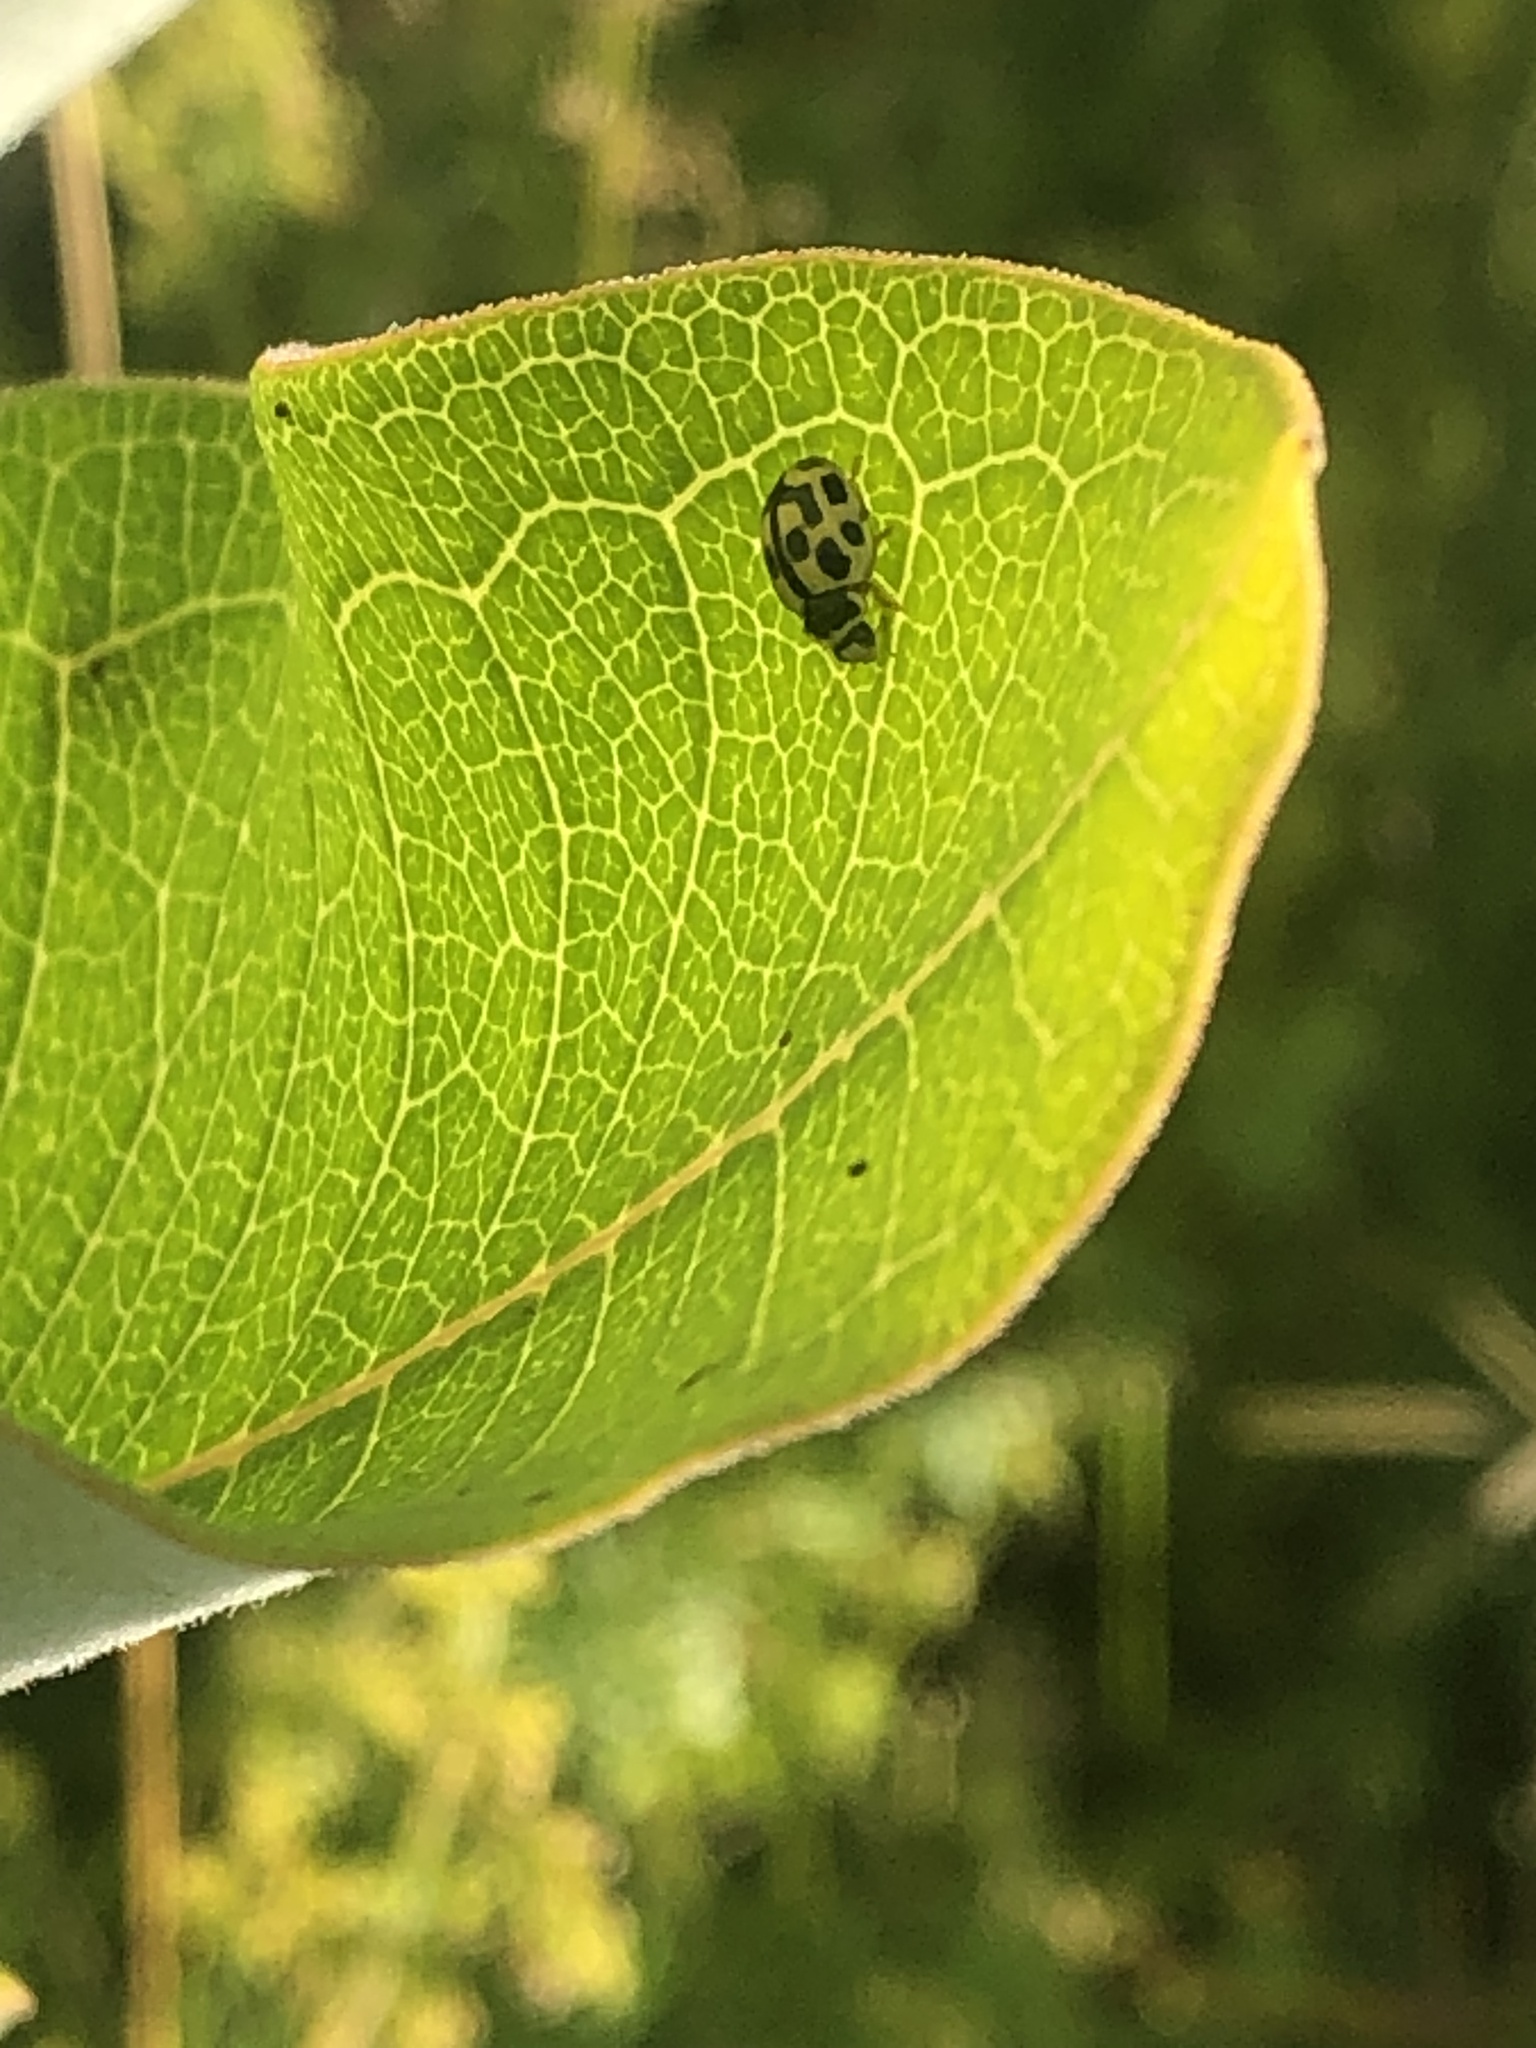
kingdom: Animalia
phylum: Arthropoda
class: Insecta
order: Coleoptera
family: Coccinellidae
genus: Propylaea
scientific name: Propylaea quatuordecimpunctata
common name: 14-spotted ladybird beetle
